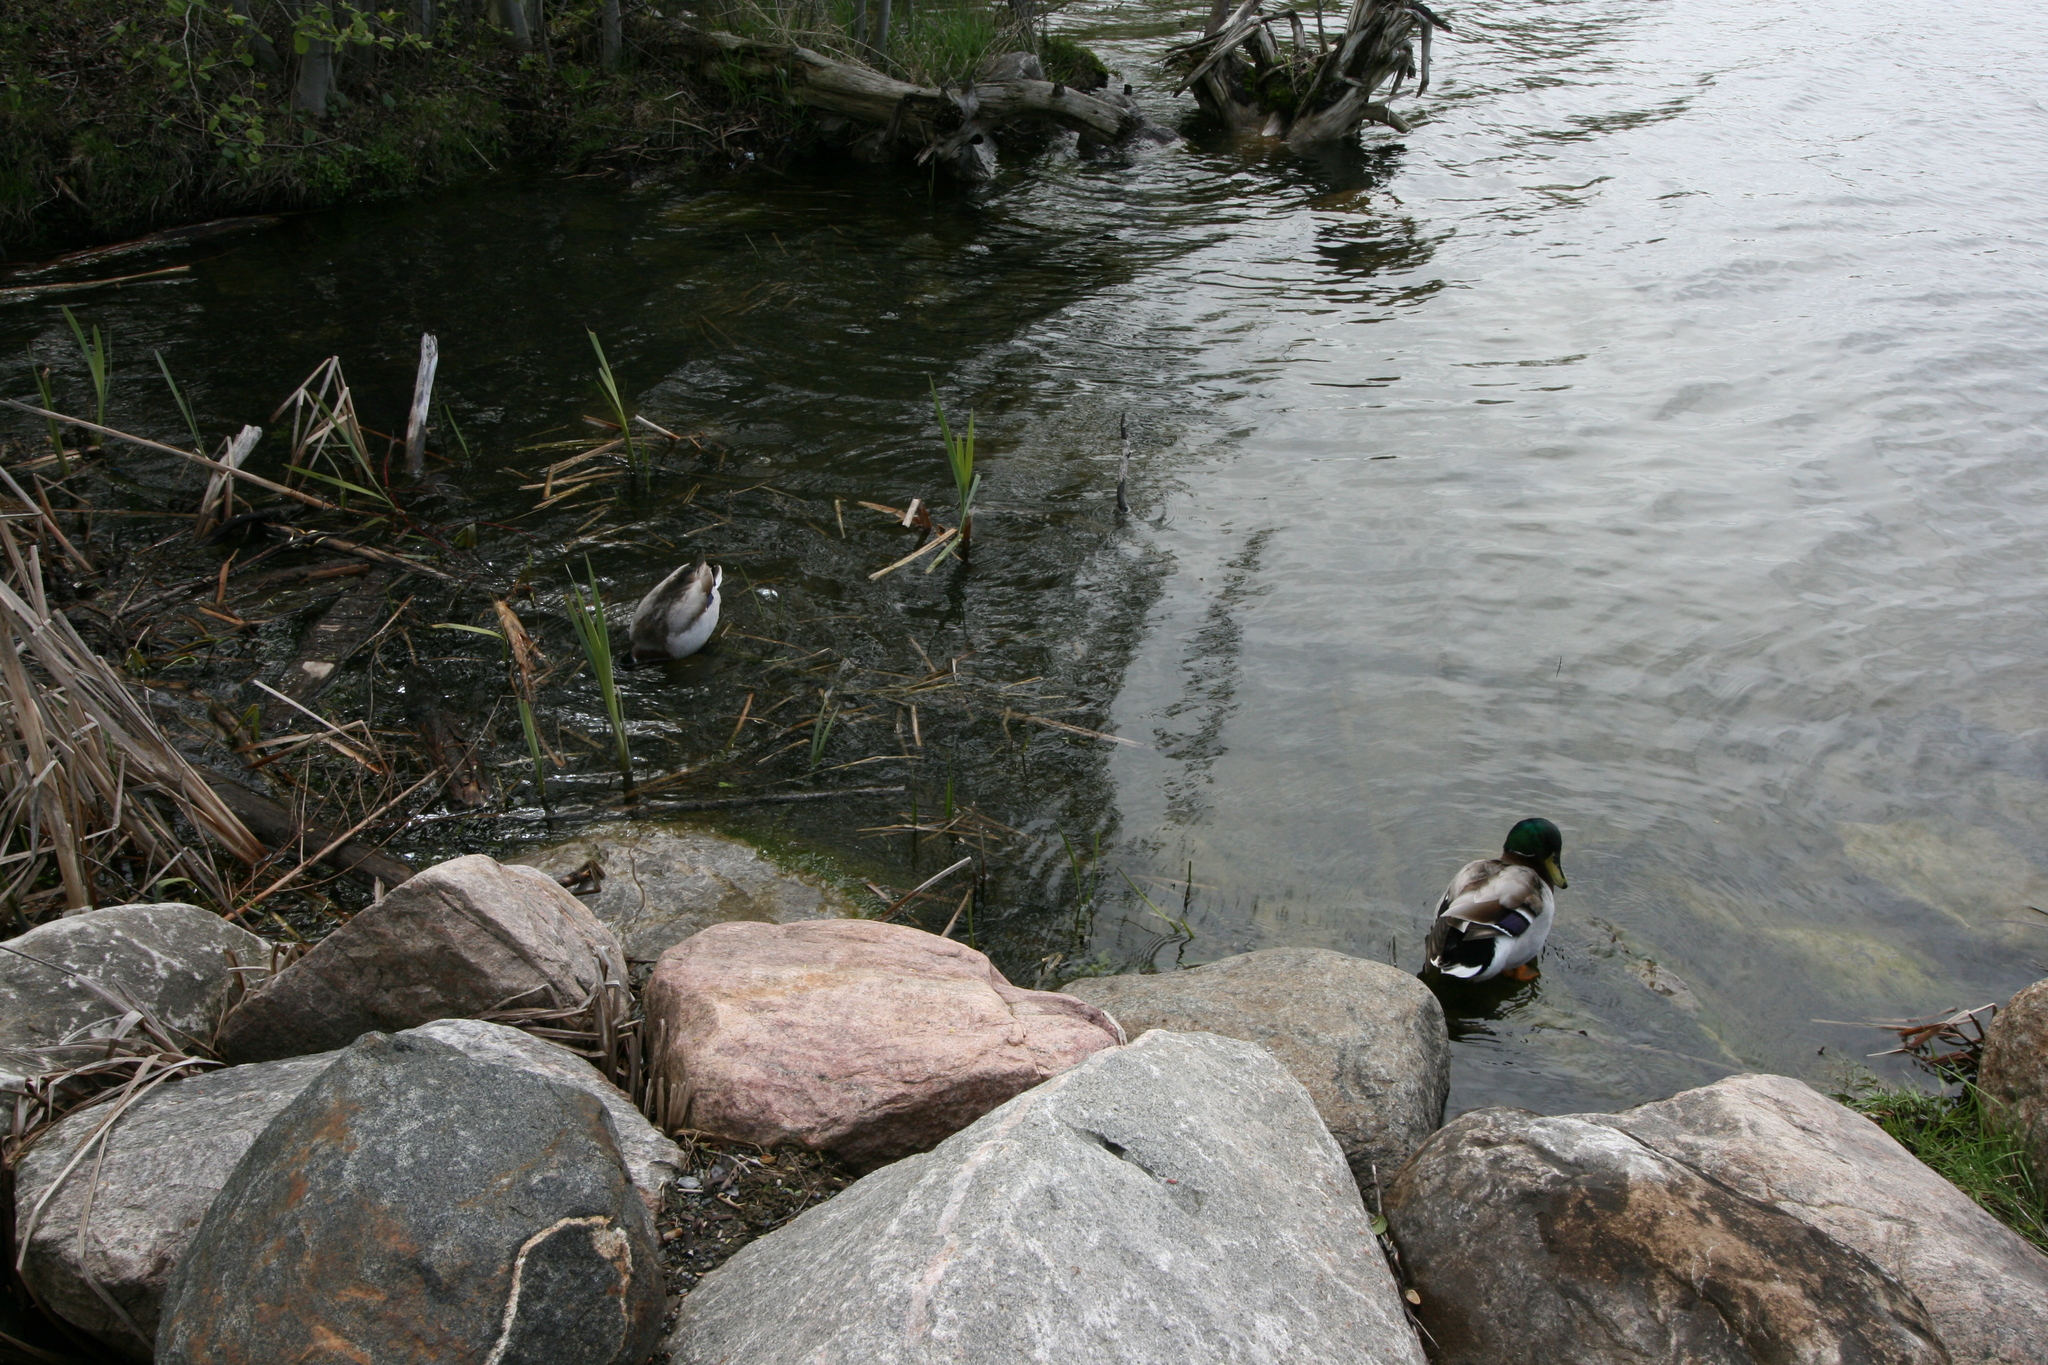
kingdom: Animalia
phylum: Chordata
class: Aves
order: Anseriformes
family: Anatidae
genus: Anas
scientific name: Anas platyrhynchos
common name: Mallard
